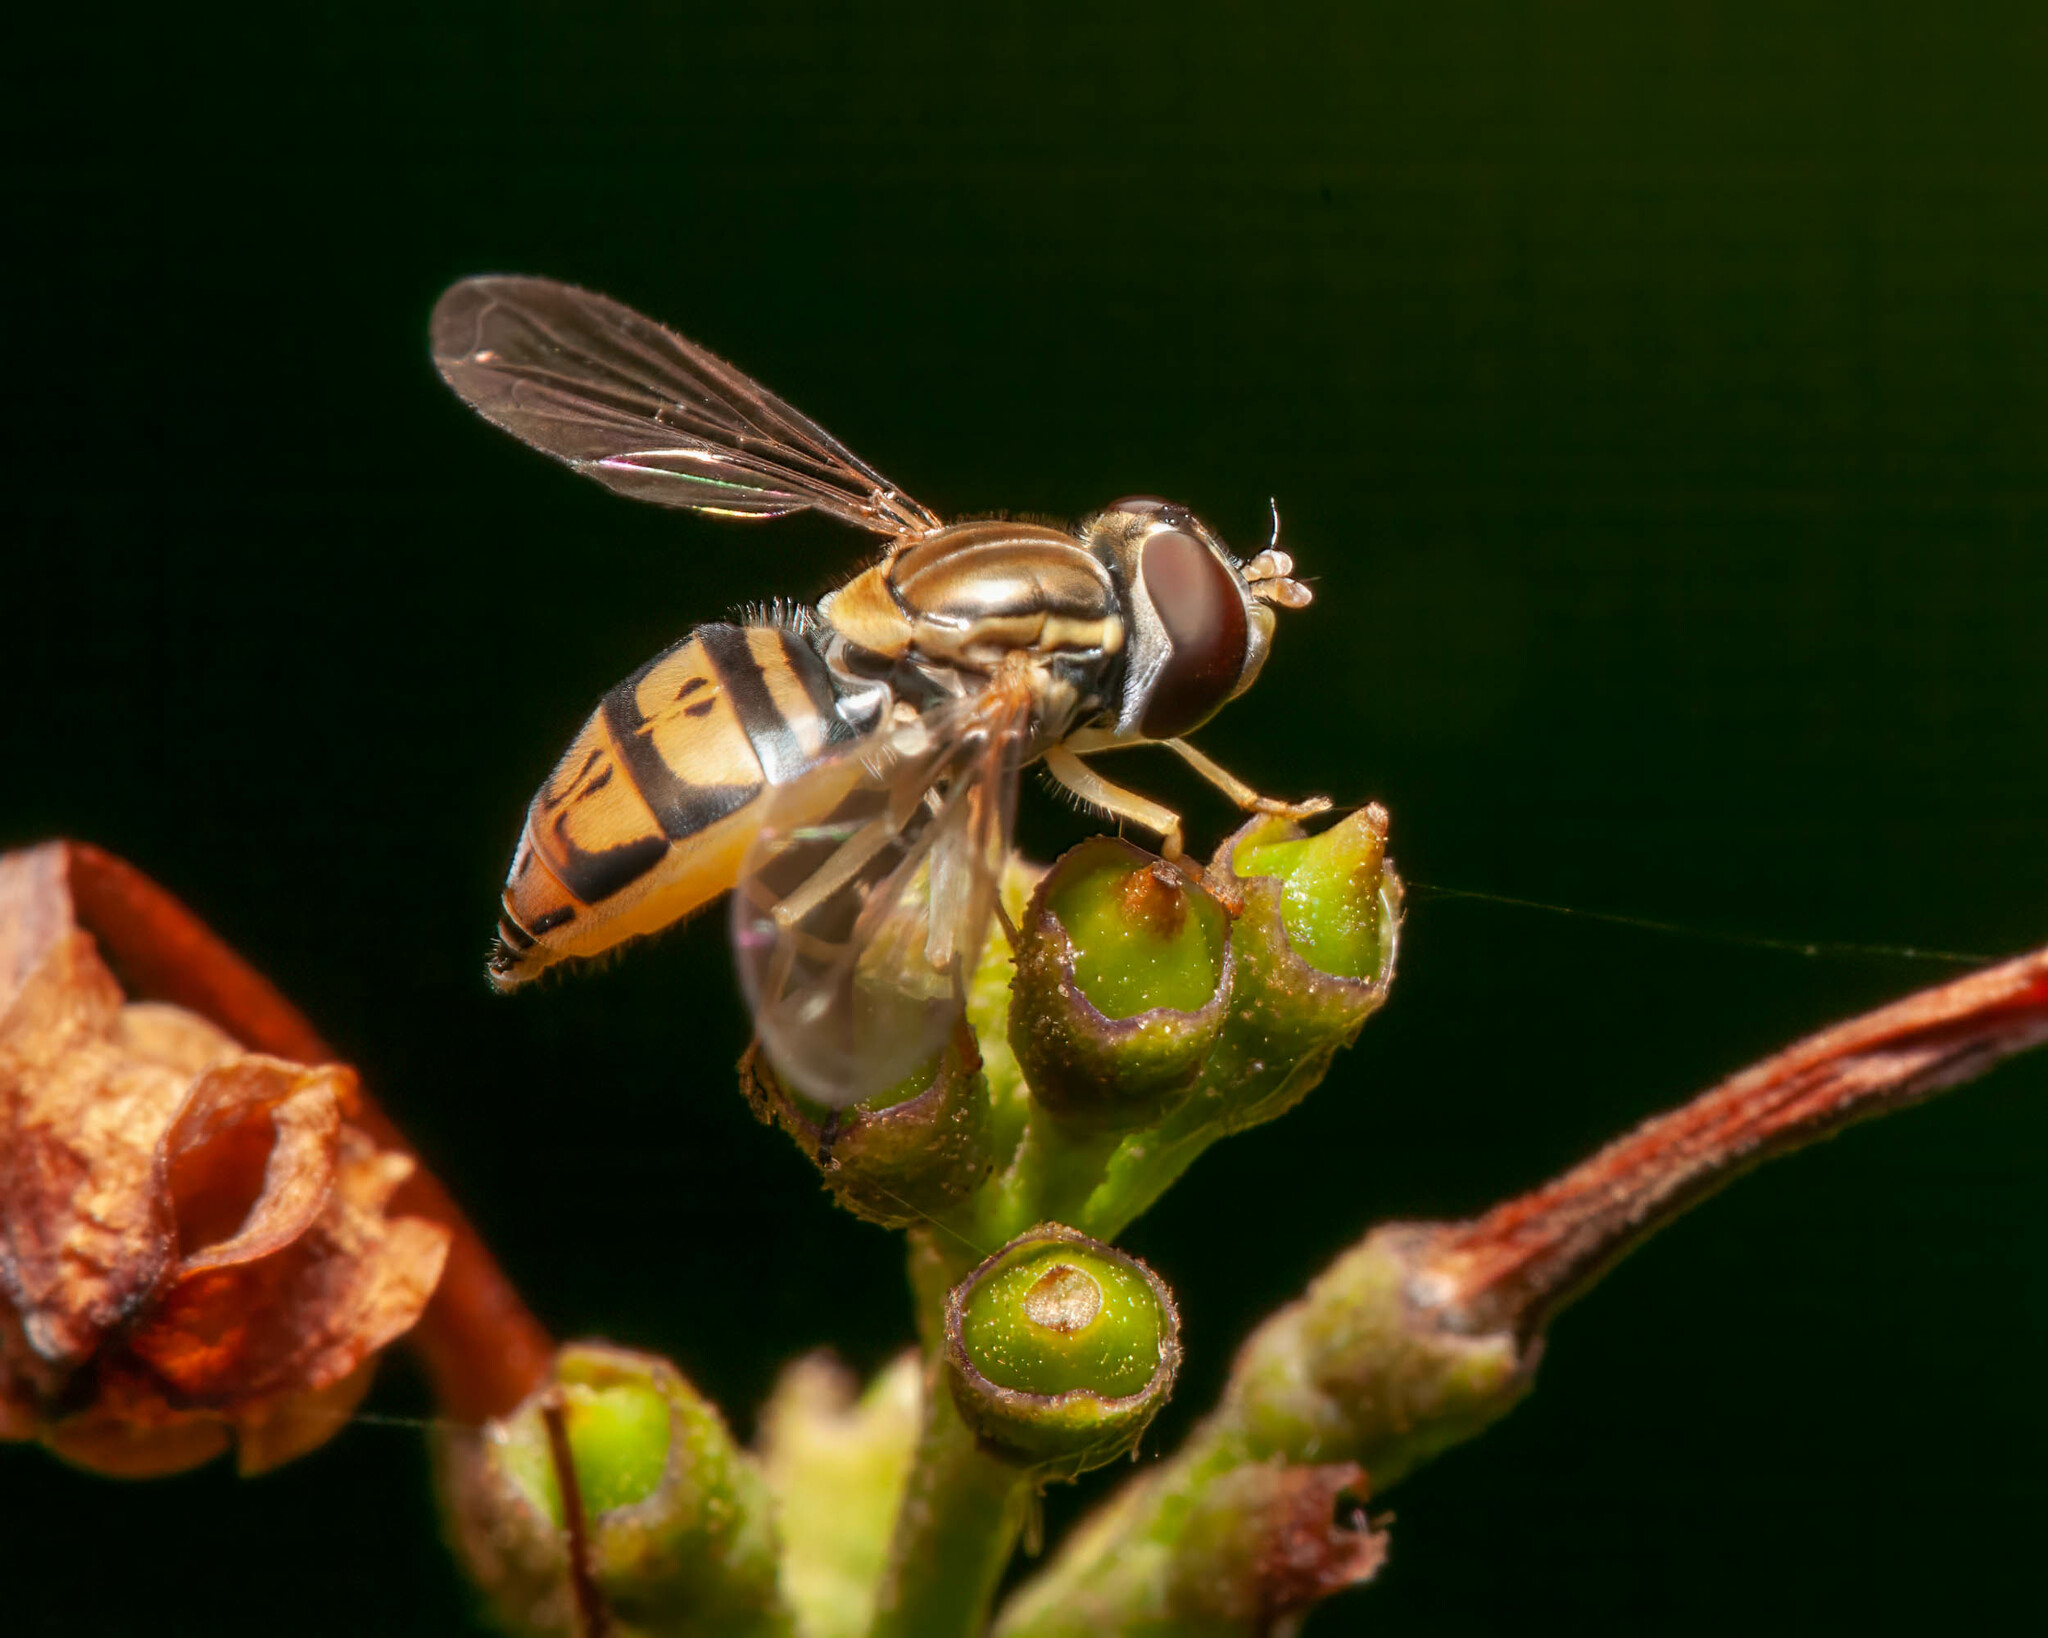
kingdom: Animalia
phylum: Arthropoda
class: Insecta
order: Diptera
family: Syrphidae
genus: Toxomerus
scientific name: Toxomerus marginatus
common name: Syrphid fly
